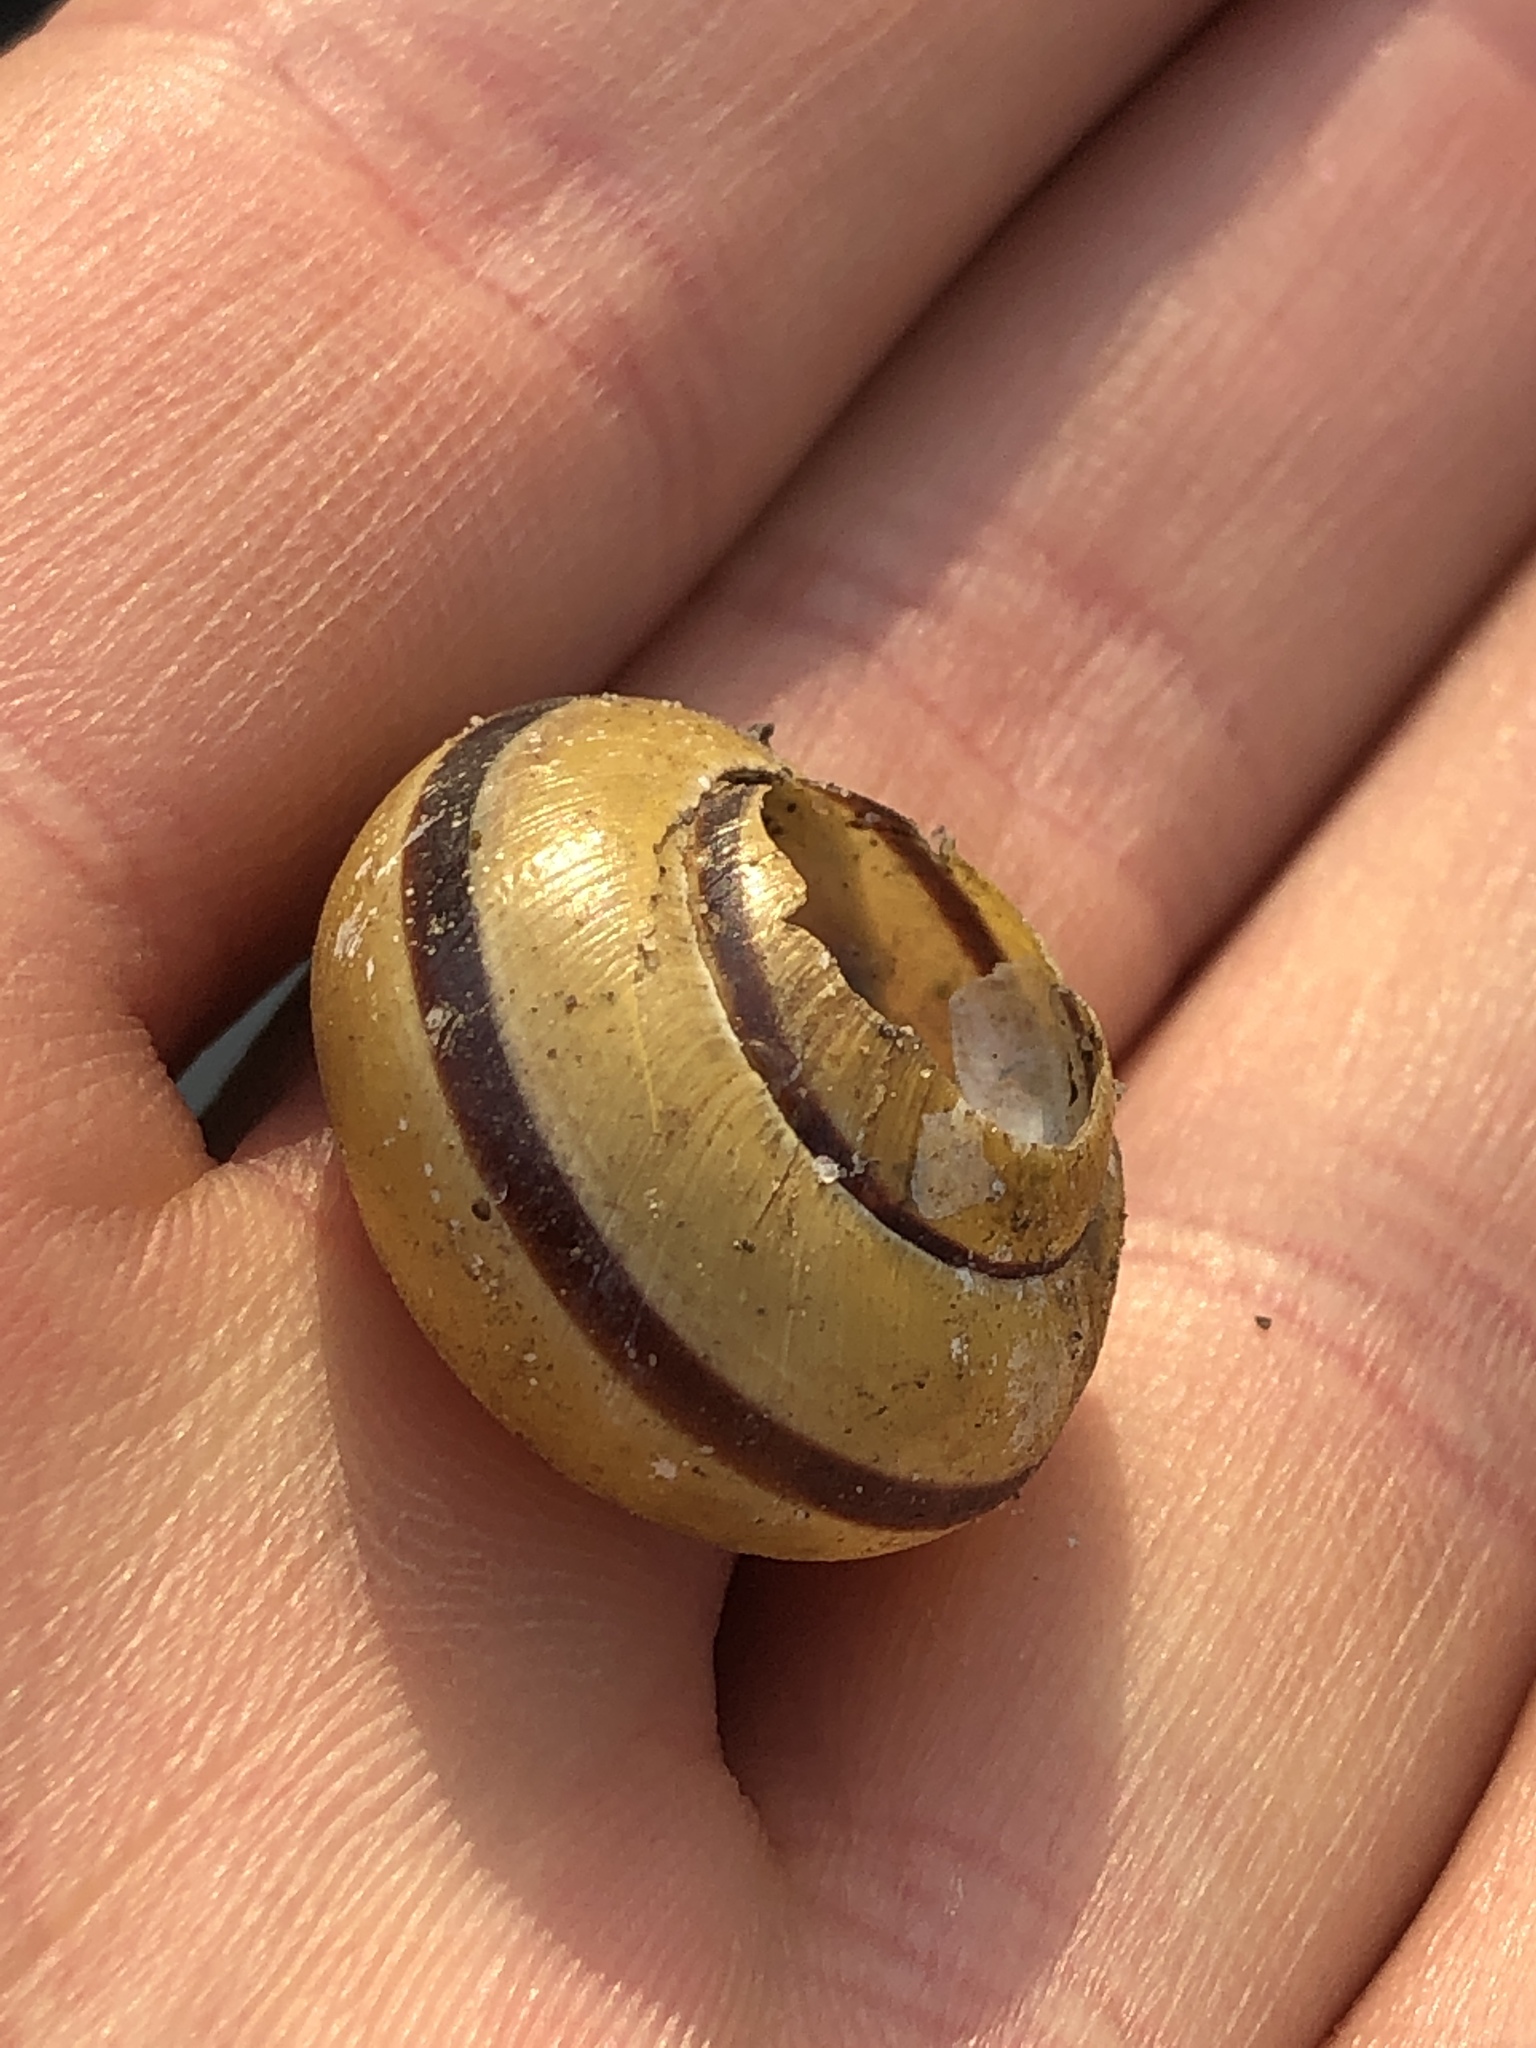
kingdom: Animalia
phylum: Mollusca
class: Gastropoda
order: Stylommatophora
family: Helicidae
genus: Cepaea
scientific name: Cepaea nemoralis
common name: Grovesnail
